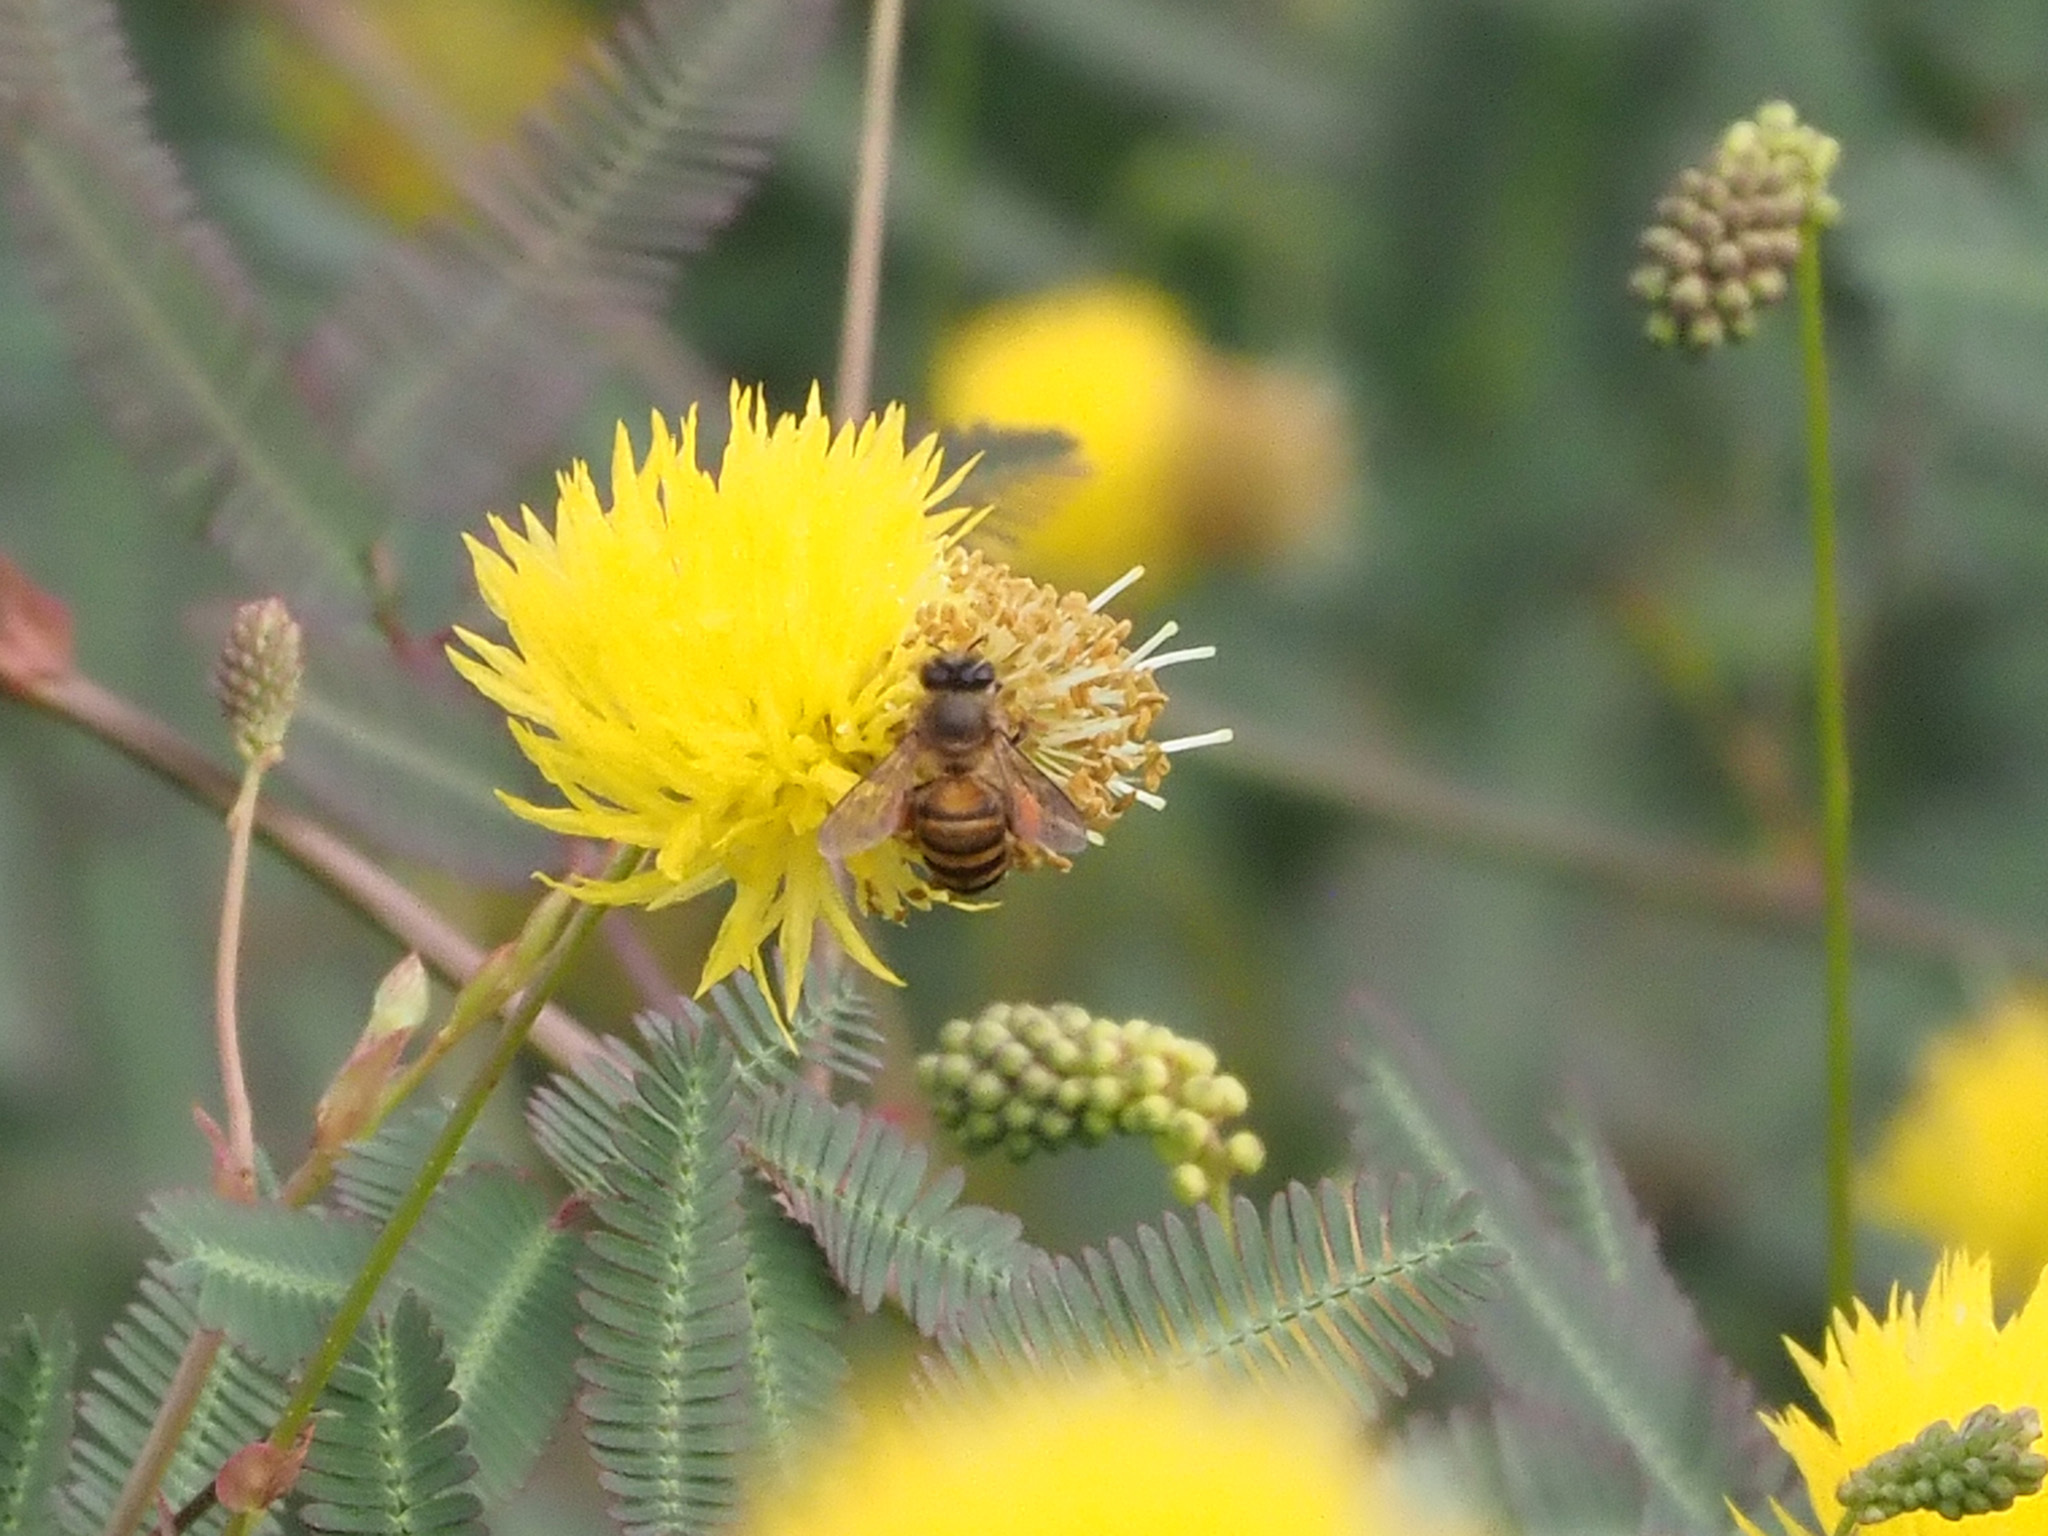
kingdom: Animalia
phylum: Arthropoda
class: Insecta
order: Hymenoptera
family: Apidae
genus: Apis
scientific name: Apis cerana
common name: Honey bee
